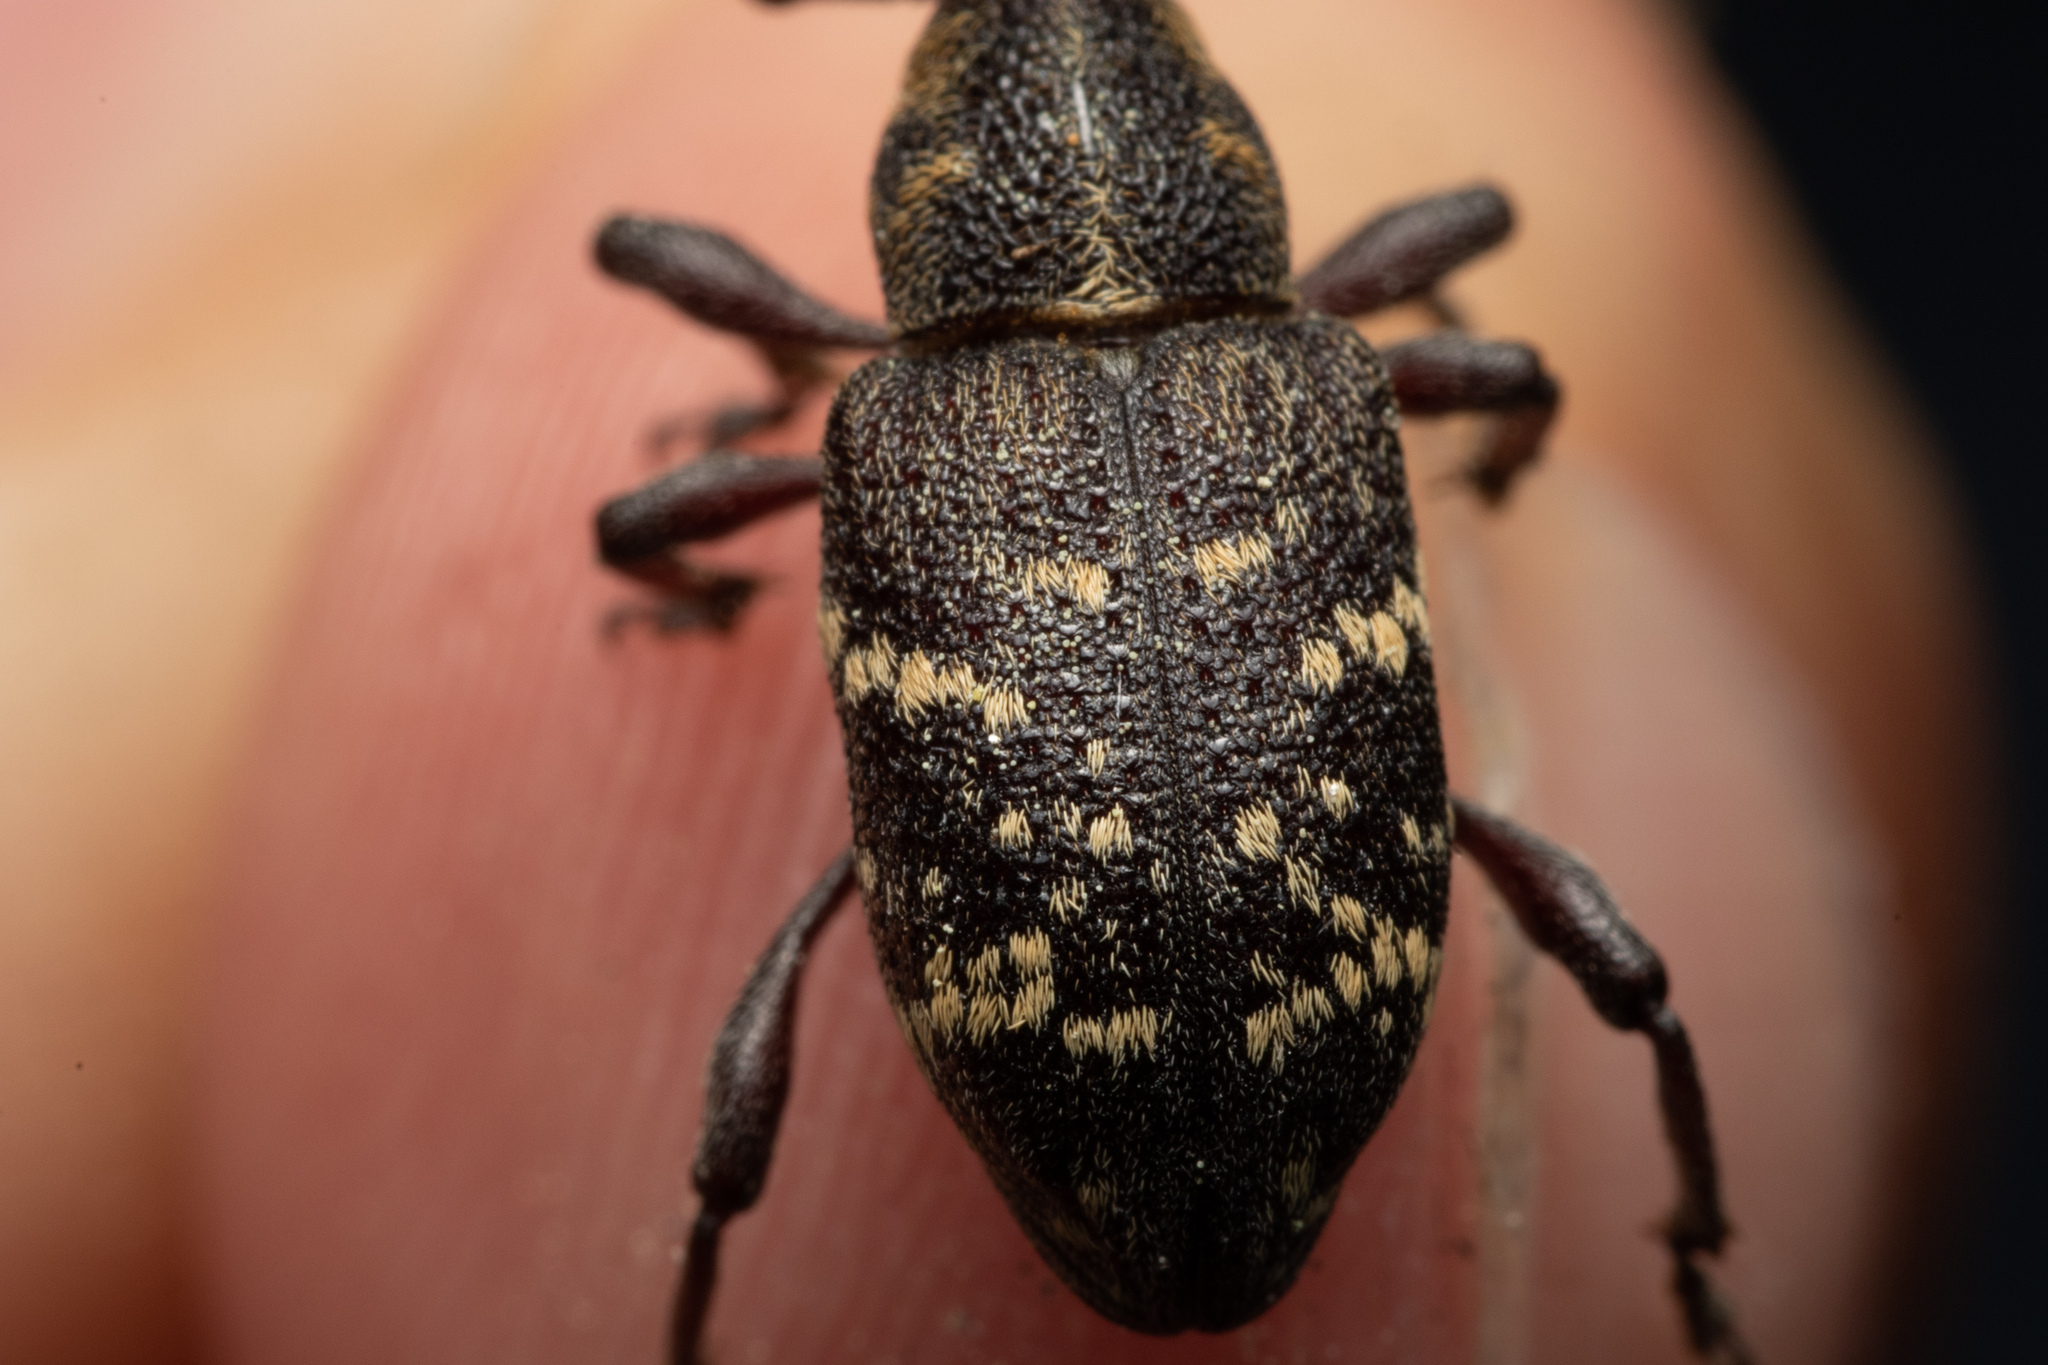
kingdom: Animalia
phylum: Arthropoda
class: Insecta
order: Coleoptera
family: Curculionidae
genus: Hylobius
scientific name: Hylobius abietis
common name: Large pine weevil
